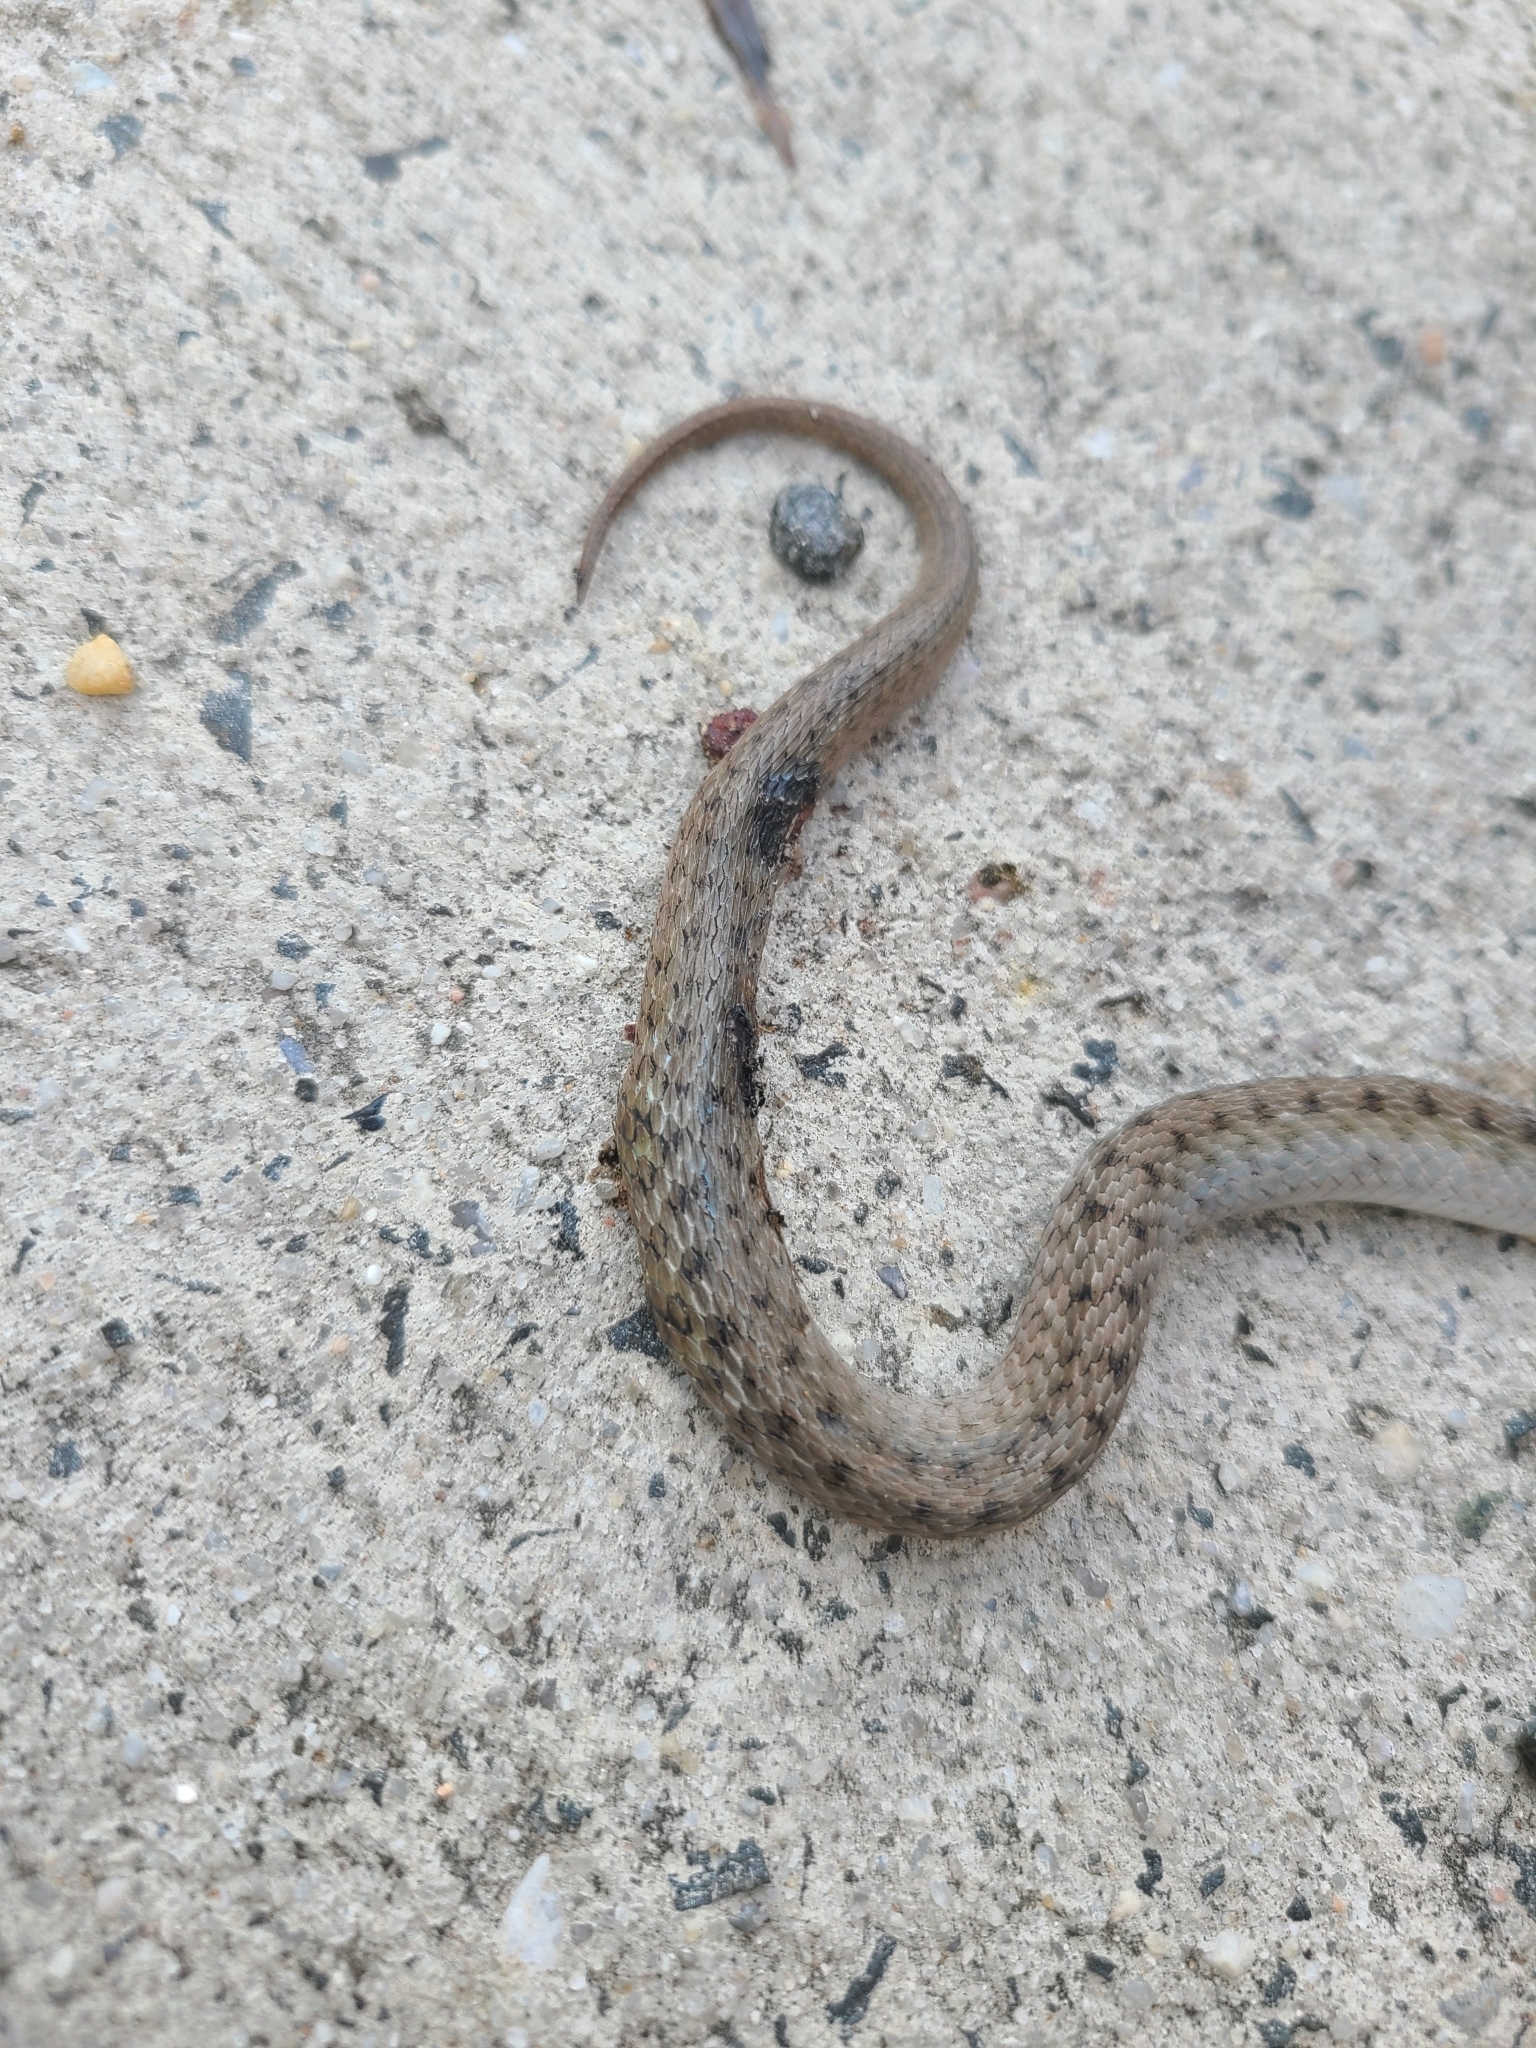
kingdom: Animalia
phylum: Chordata
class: Squamata
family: Colubridae
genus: Storeria
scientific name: Storeria dekayi
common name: (dekay’s) brown snake
